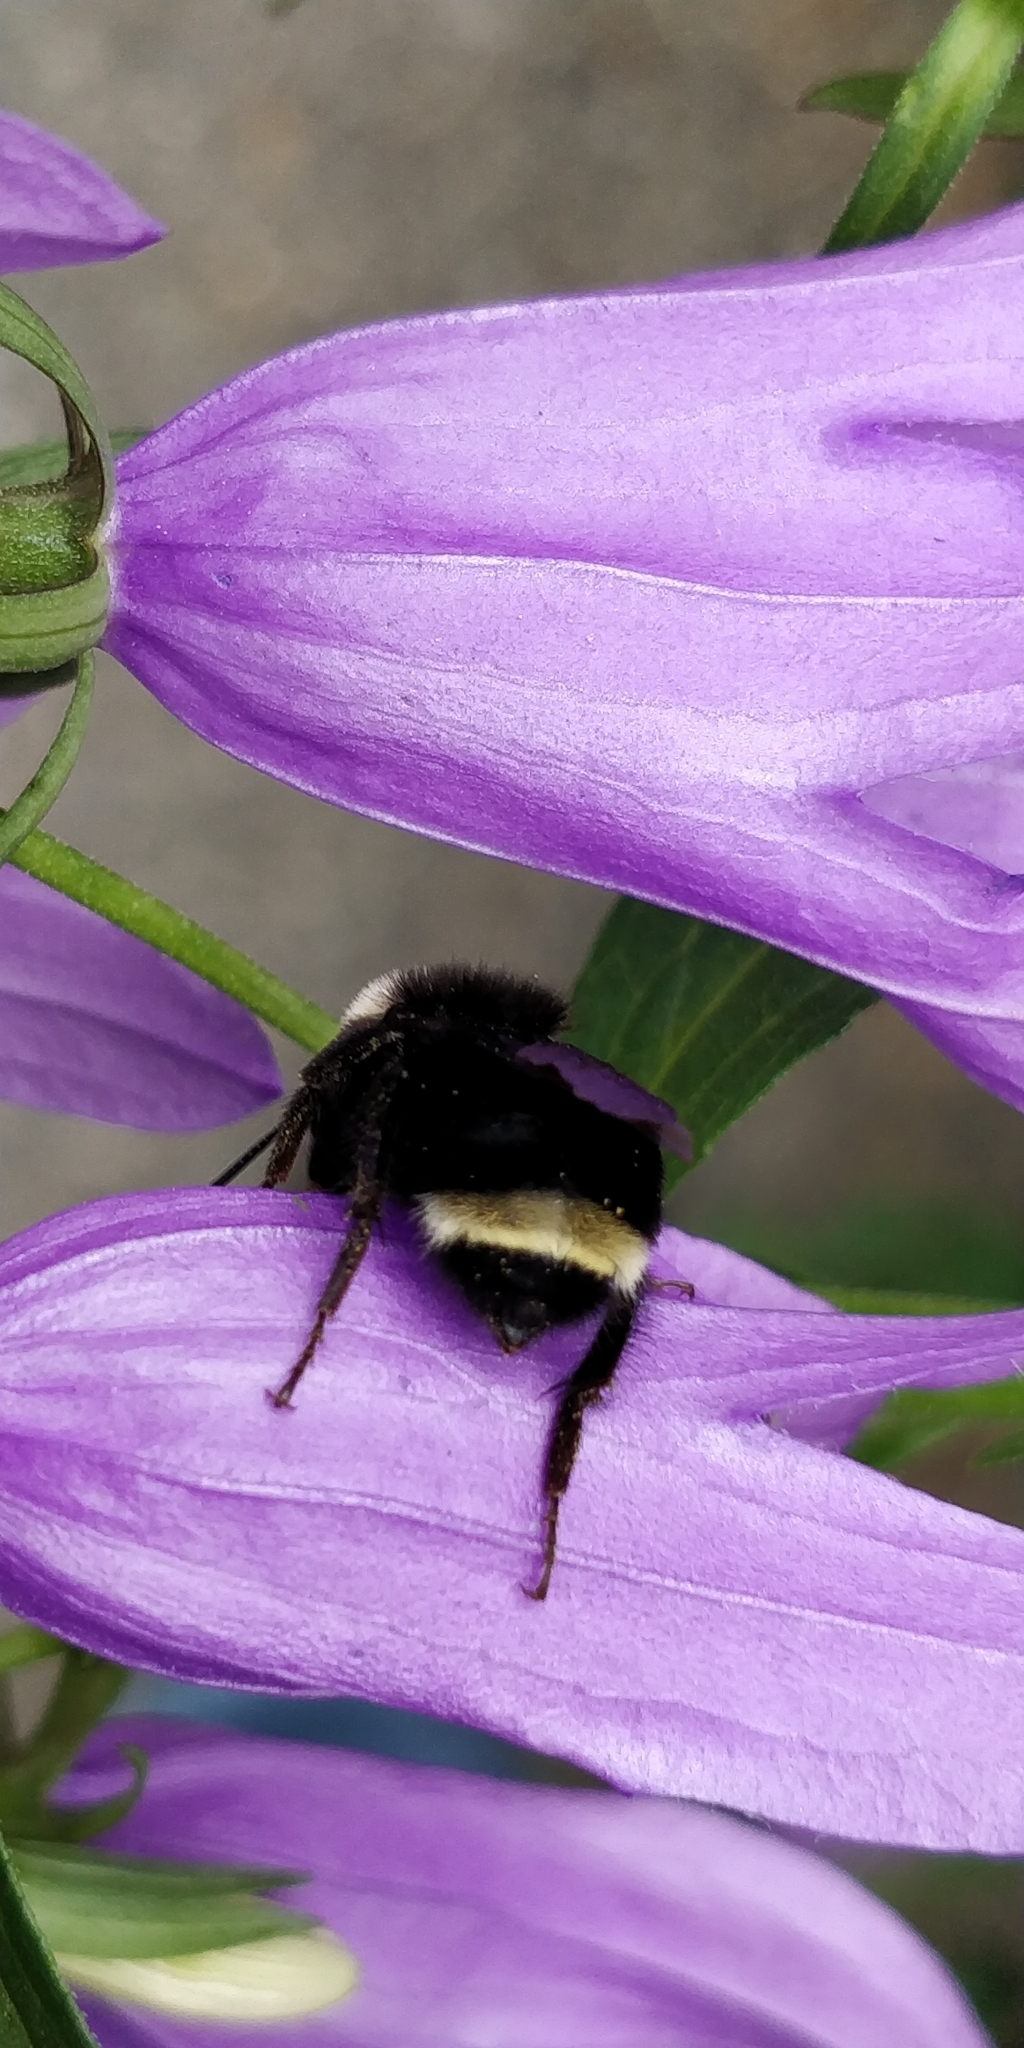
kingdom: Animalia
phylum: Arthropoda
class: Insecta
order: Hymenoptera
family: Apidae
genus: Bombus
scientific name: Bombus vosnesenskii
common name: Vosnesensky bumble bee
